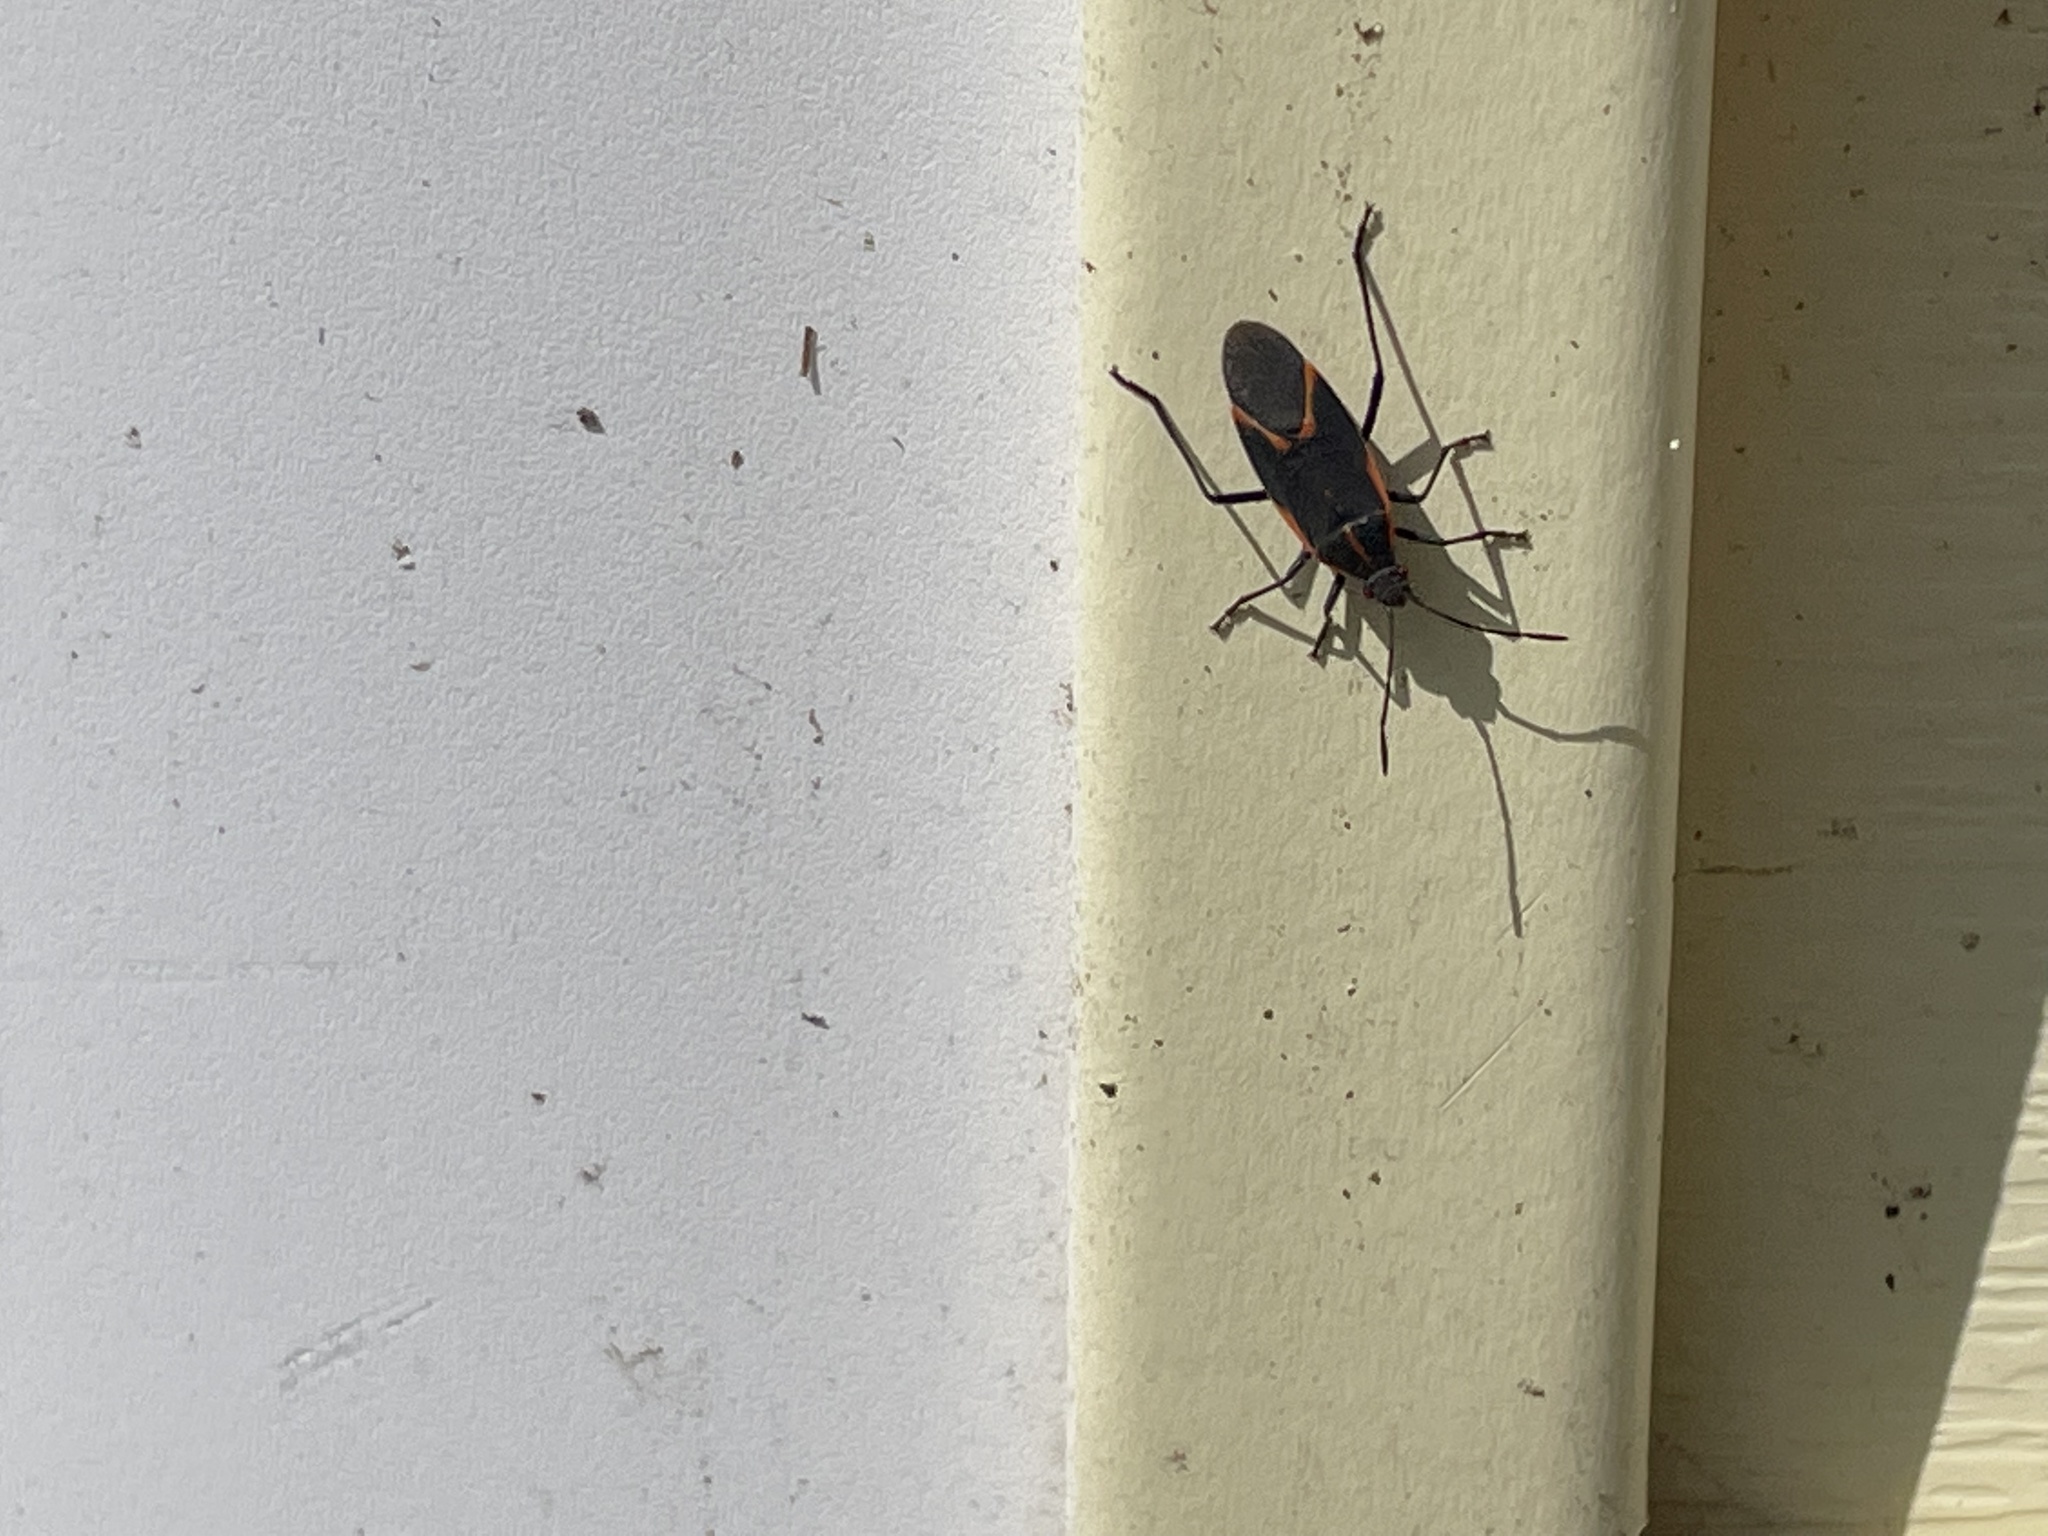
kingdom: Animalia
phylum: Arthropoda
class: Insecta
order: Hemiptera
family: Rhopalidae
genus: Boisea
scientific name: Boisea trivittata
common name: Boxelder bug
